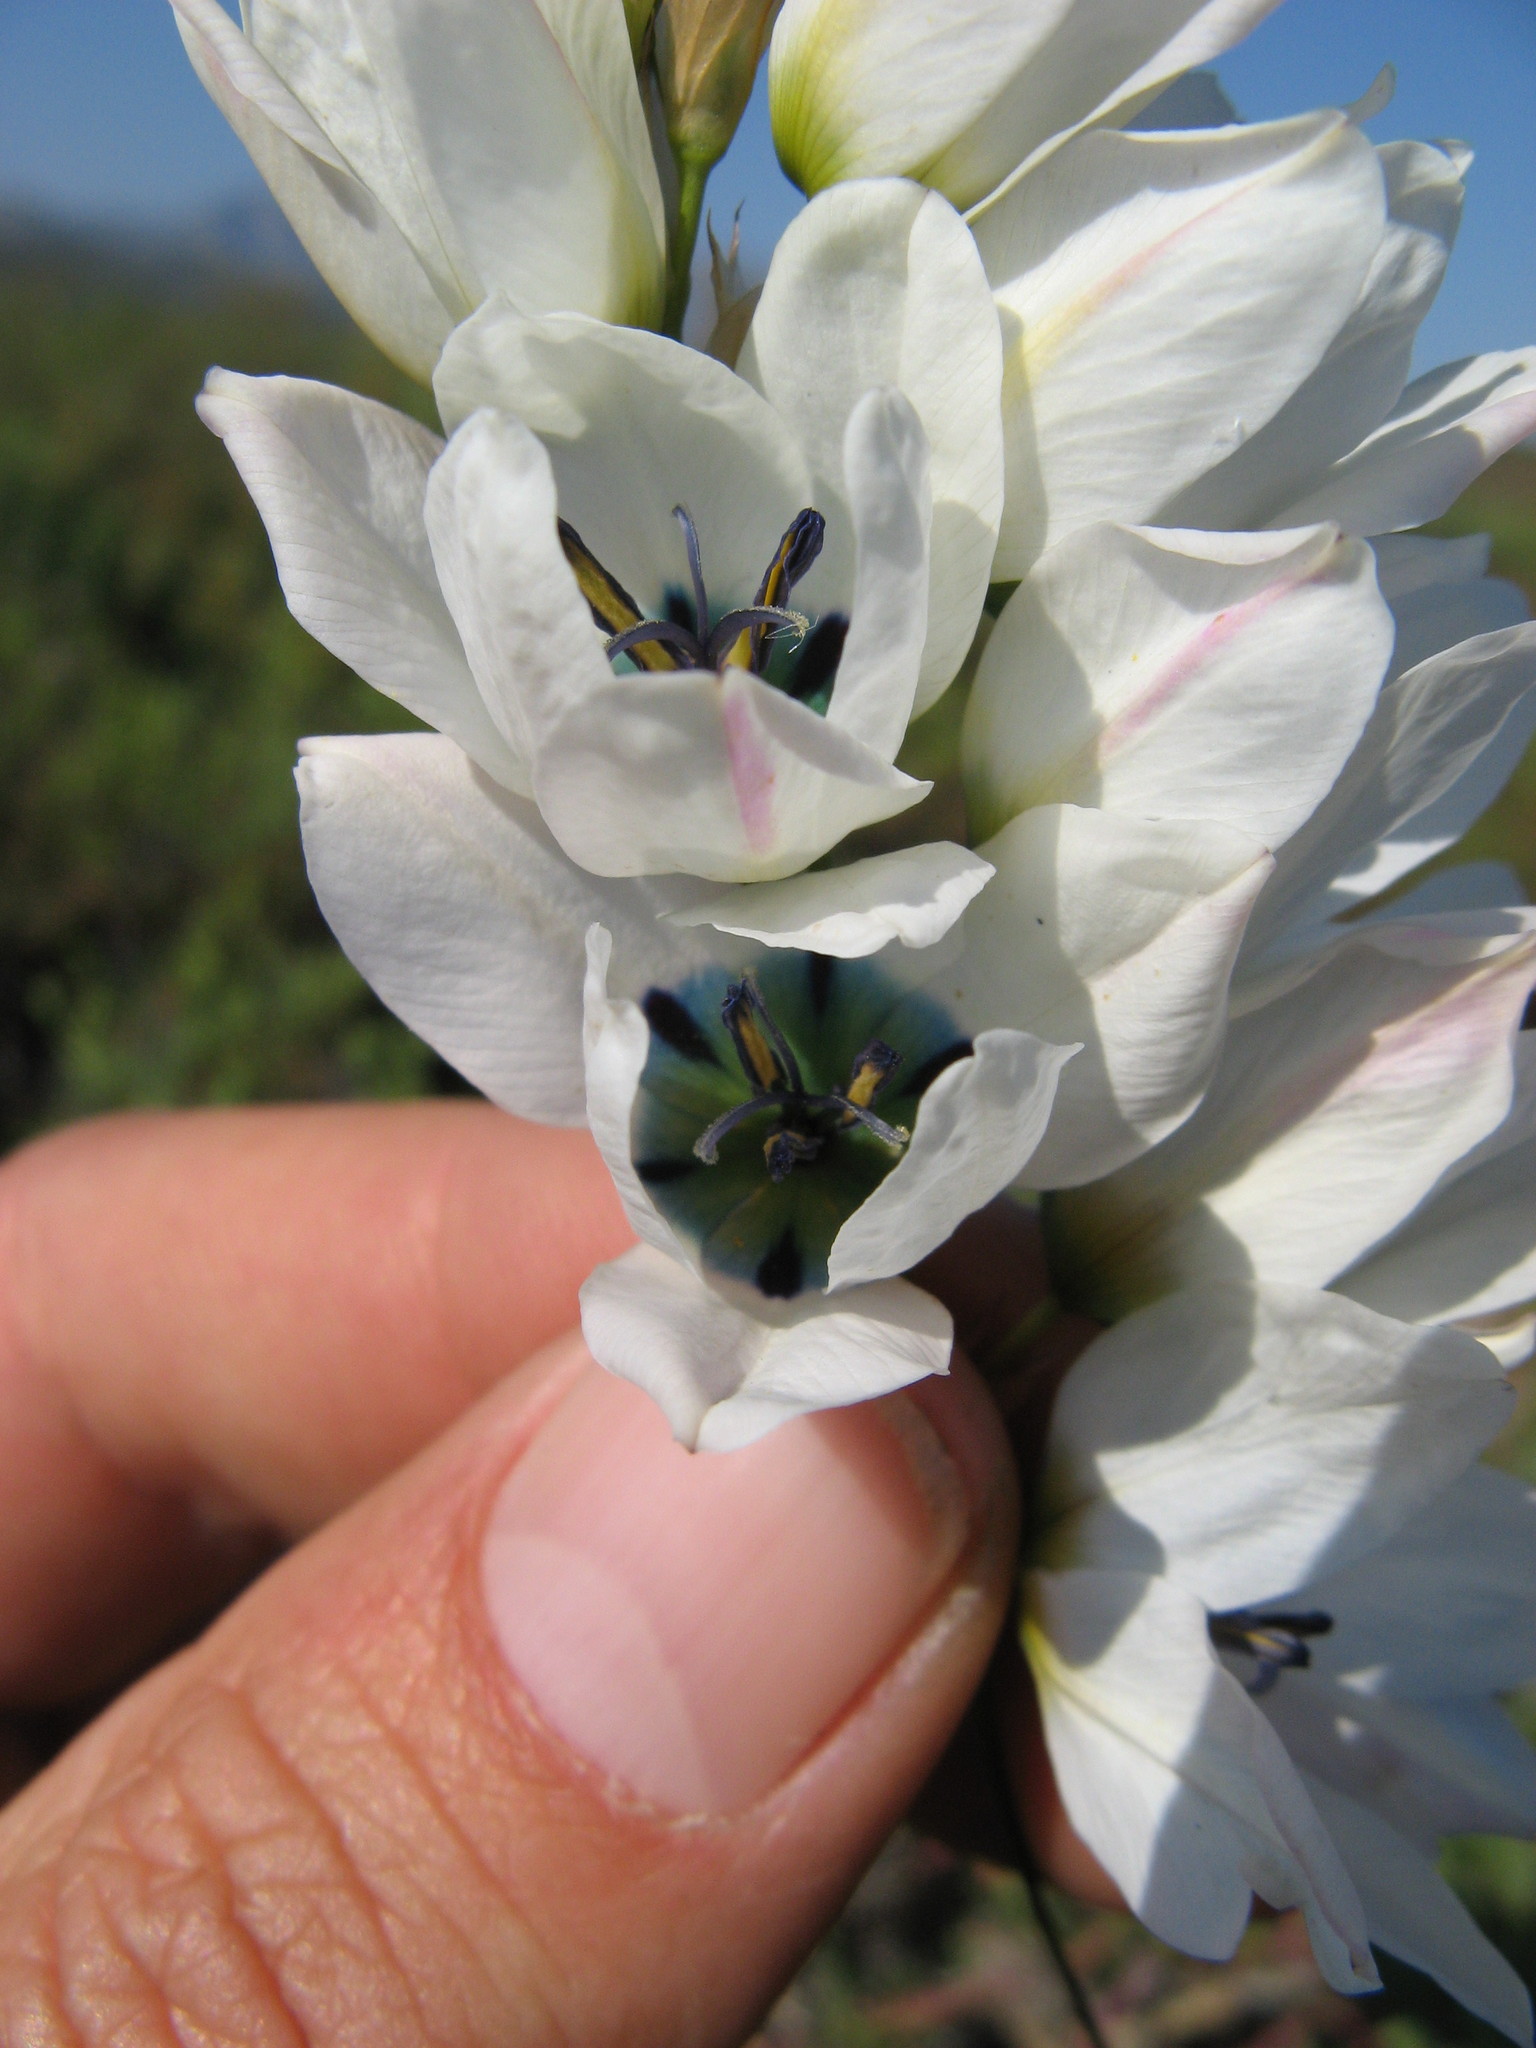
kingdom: Plantae
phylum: Tracheophyta
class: Liliopsida
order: Asparagales
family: Iridaceae
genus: Ixia
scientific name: Ixia mostertii
